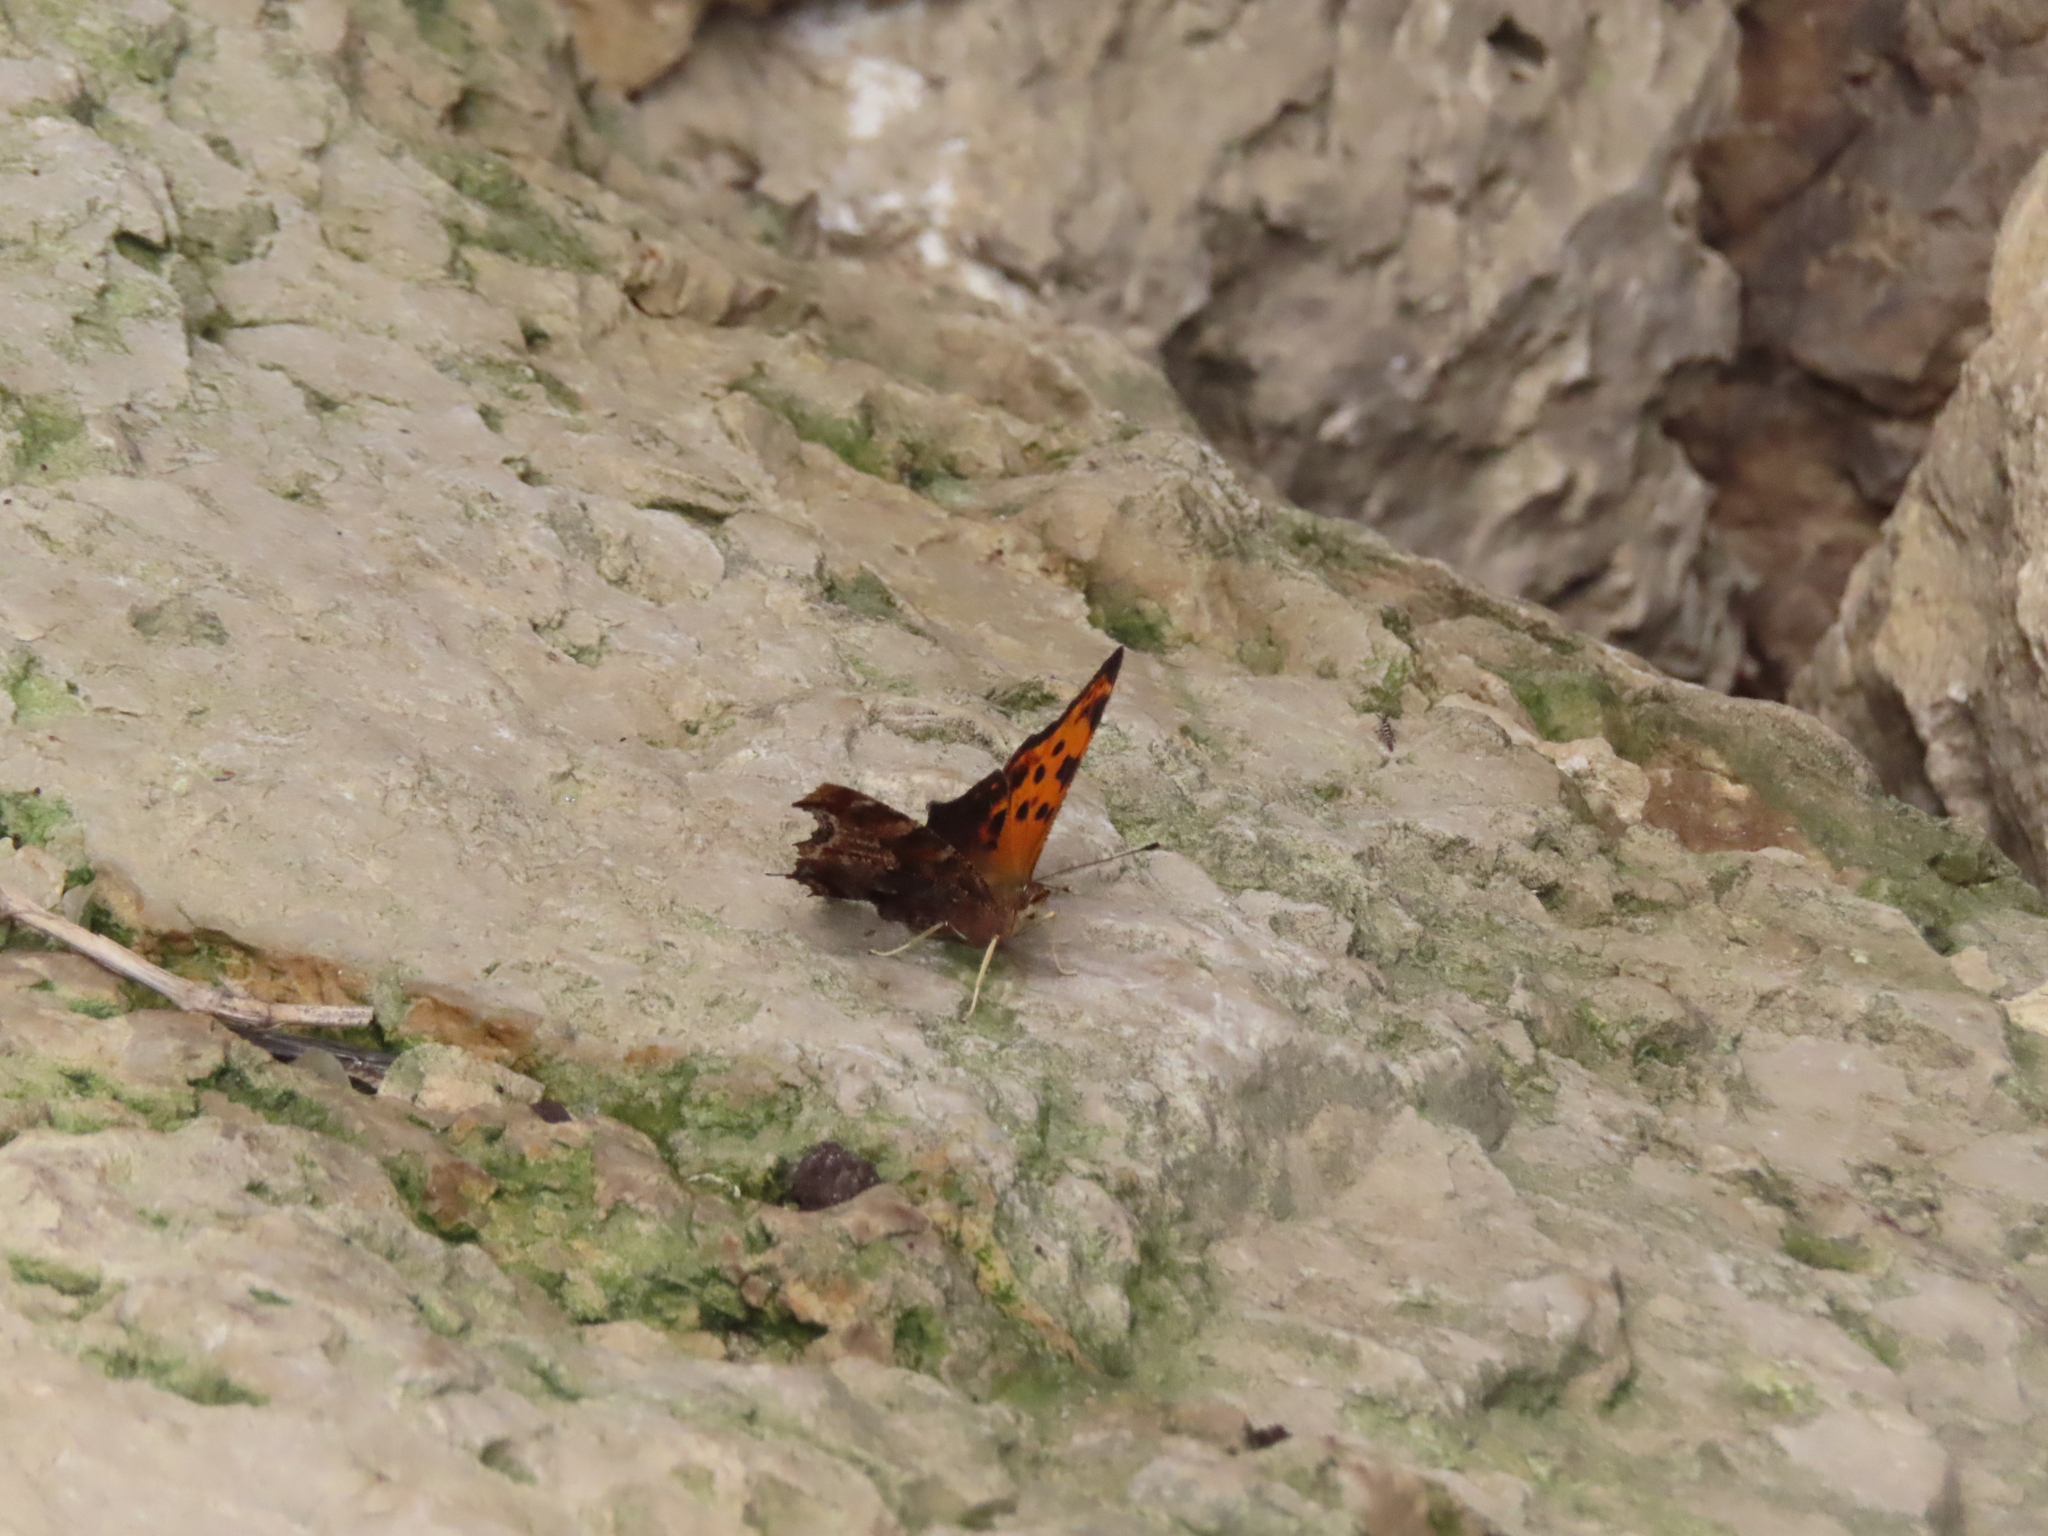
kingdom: Animalia
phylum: Arthropoda
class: Insecta
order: Lepidoptera
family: Nymphalidae
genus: Polygonia
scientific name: Polygonia comma
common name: Eastern comma
